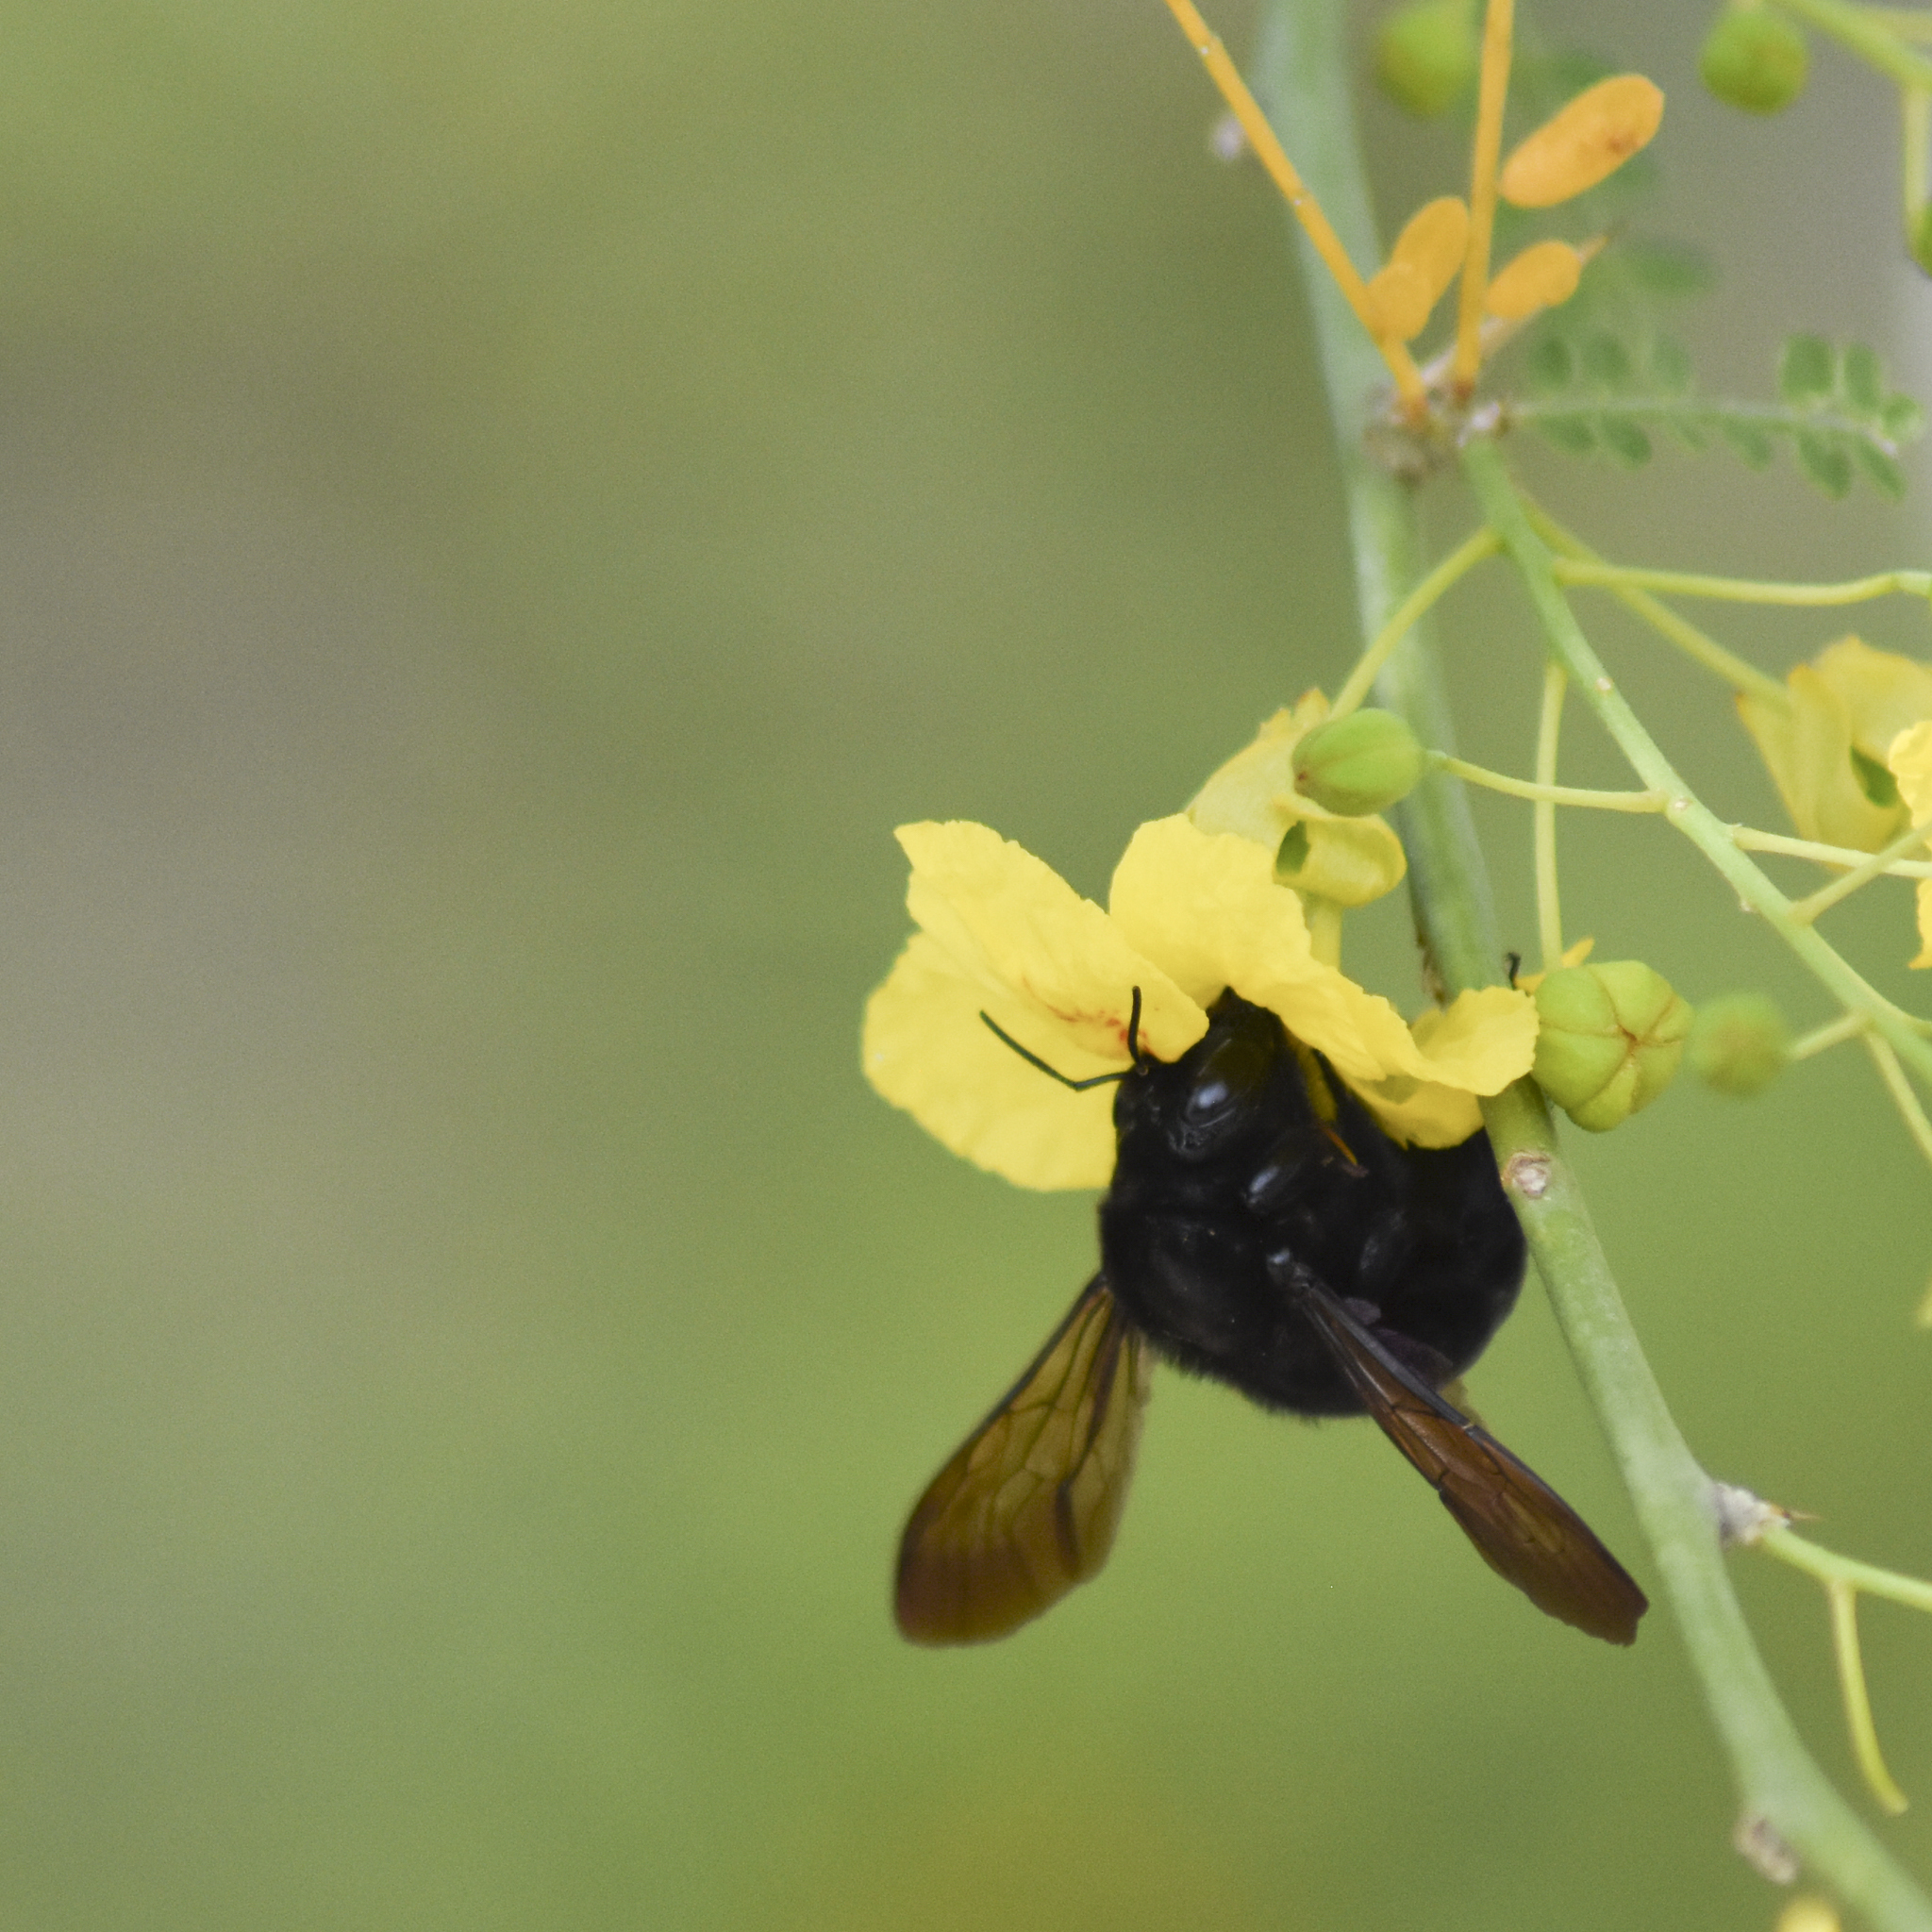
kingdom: Animalia
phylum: Arthropoda
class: Insecta
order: Hymenoptera
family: Apidae
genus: Xylocopa
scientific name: Xylocopa sonorina
